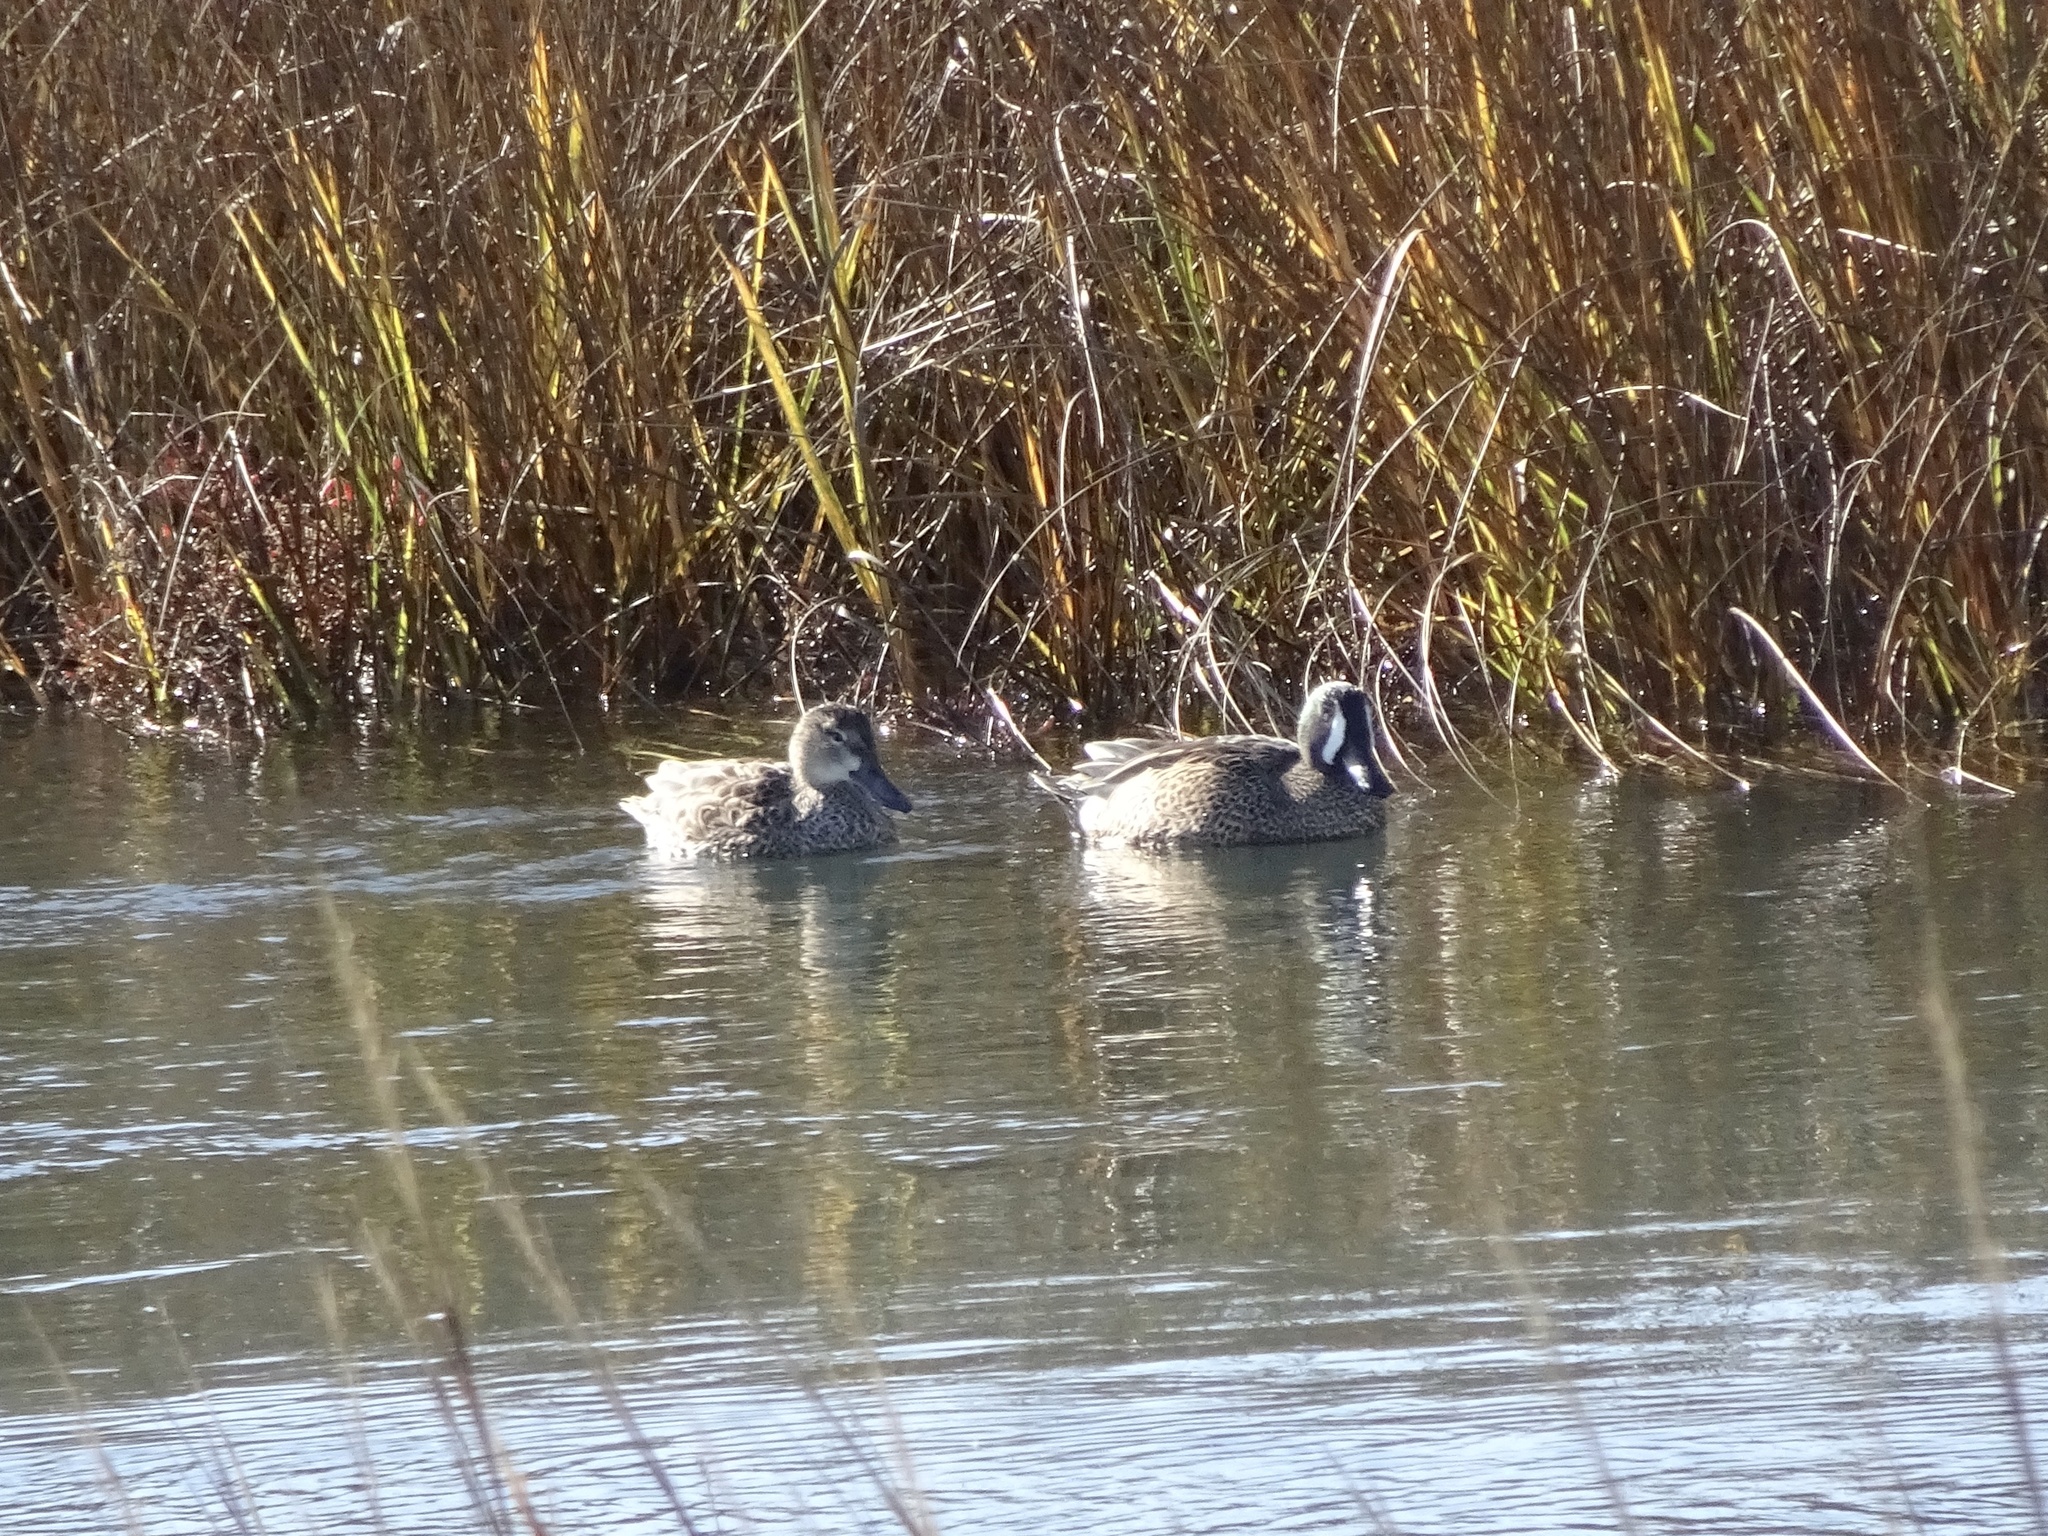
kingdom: Animalia
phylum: Chordata
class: Aves
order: Anseriformes
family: Anatidae
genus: Spatula
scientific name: Spatula discors
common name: Blue-winged teal
